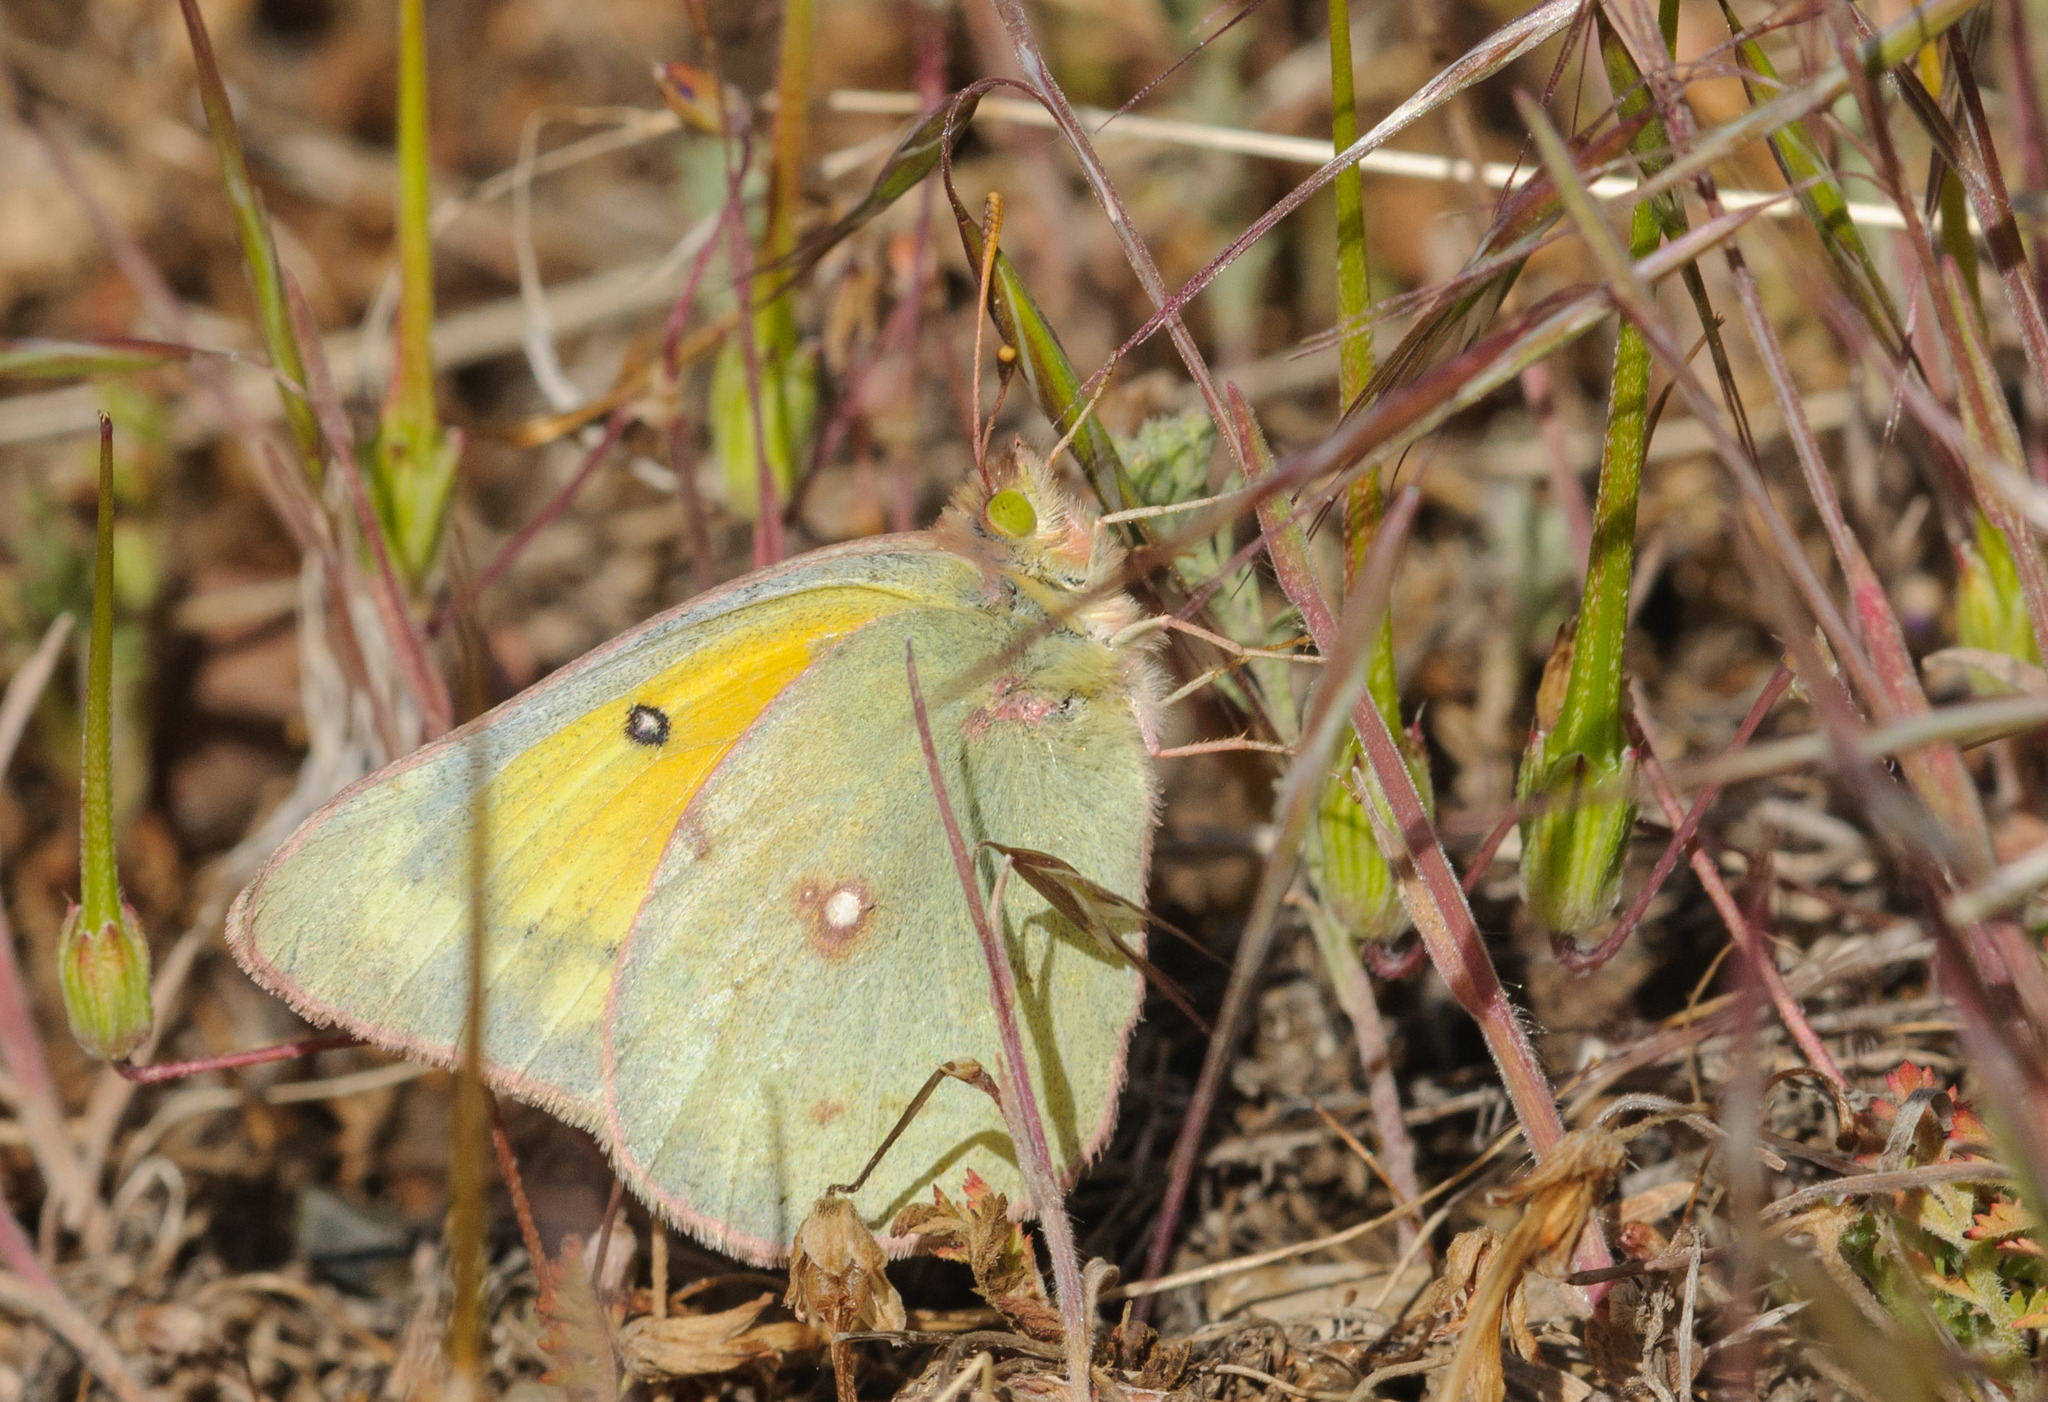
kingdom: Animalia
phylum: Arthropoda
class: Insecta
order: Lepidoptera
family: Pieridae
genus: Colias
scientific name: Colias eurytheme
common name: Alfalfa butterfly
